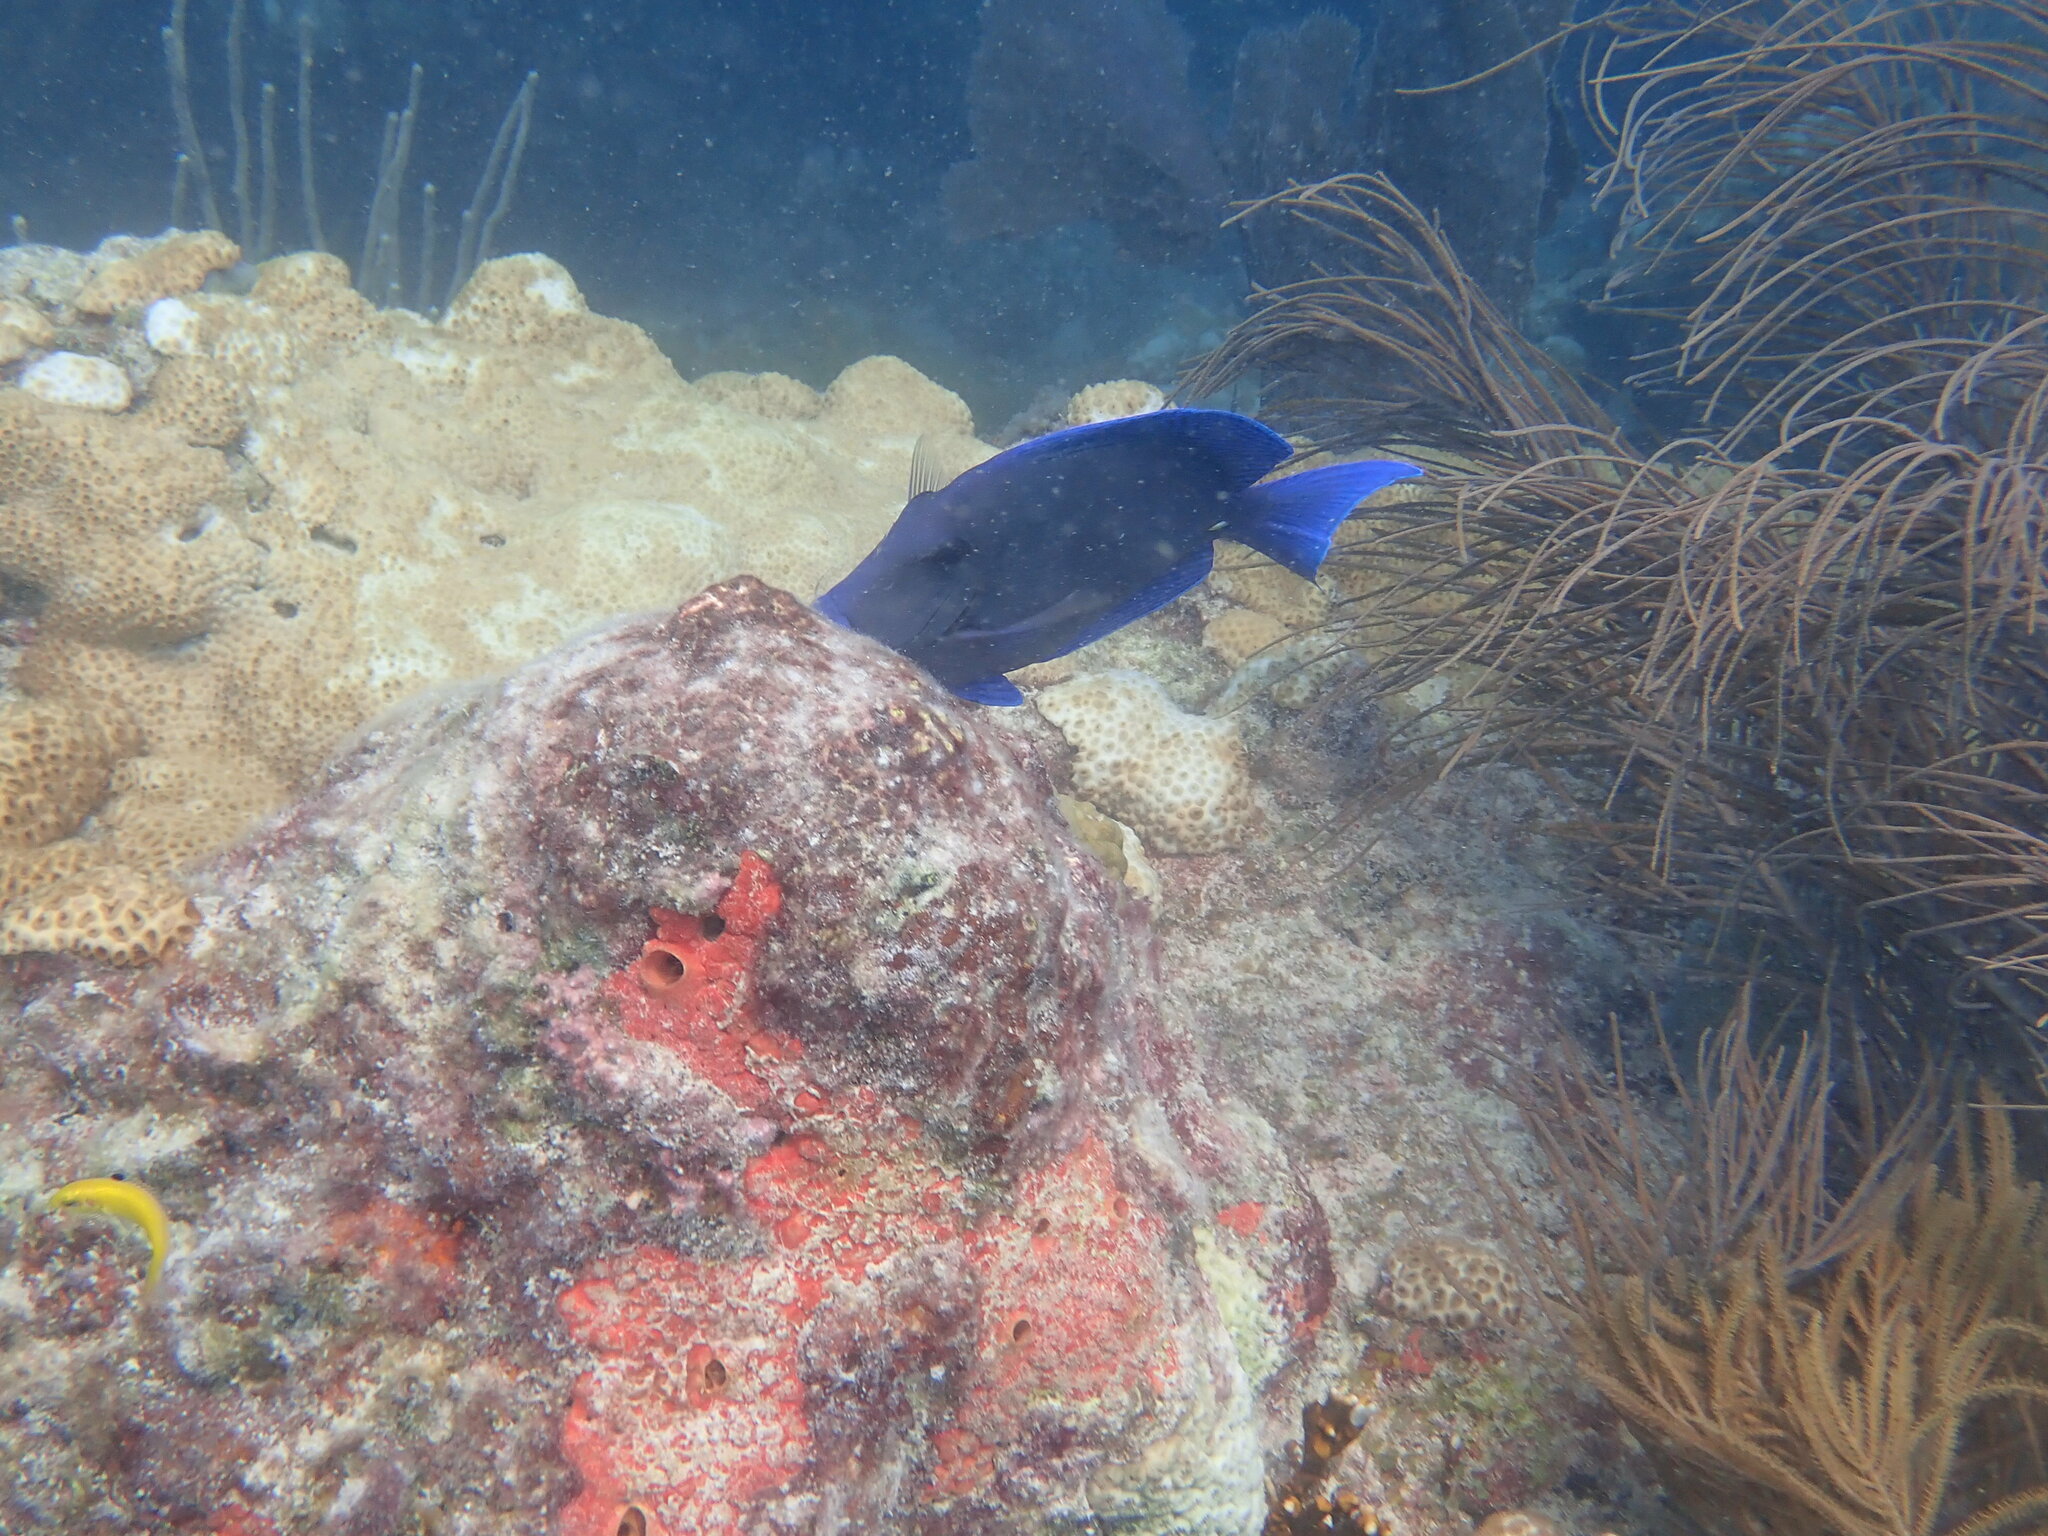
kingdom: Animalia
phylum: Chordata
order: Perciformes
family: Acanthuridae
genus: Acanthurus
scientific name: Acanthurus coeruleus
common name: Blue tang
